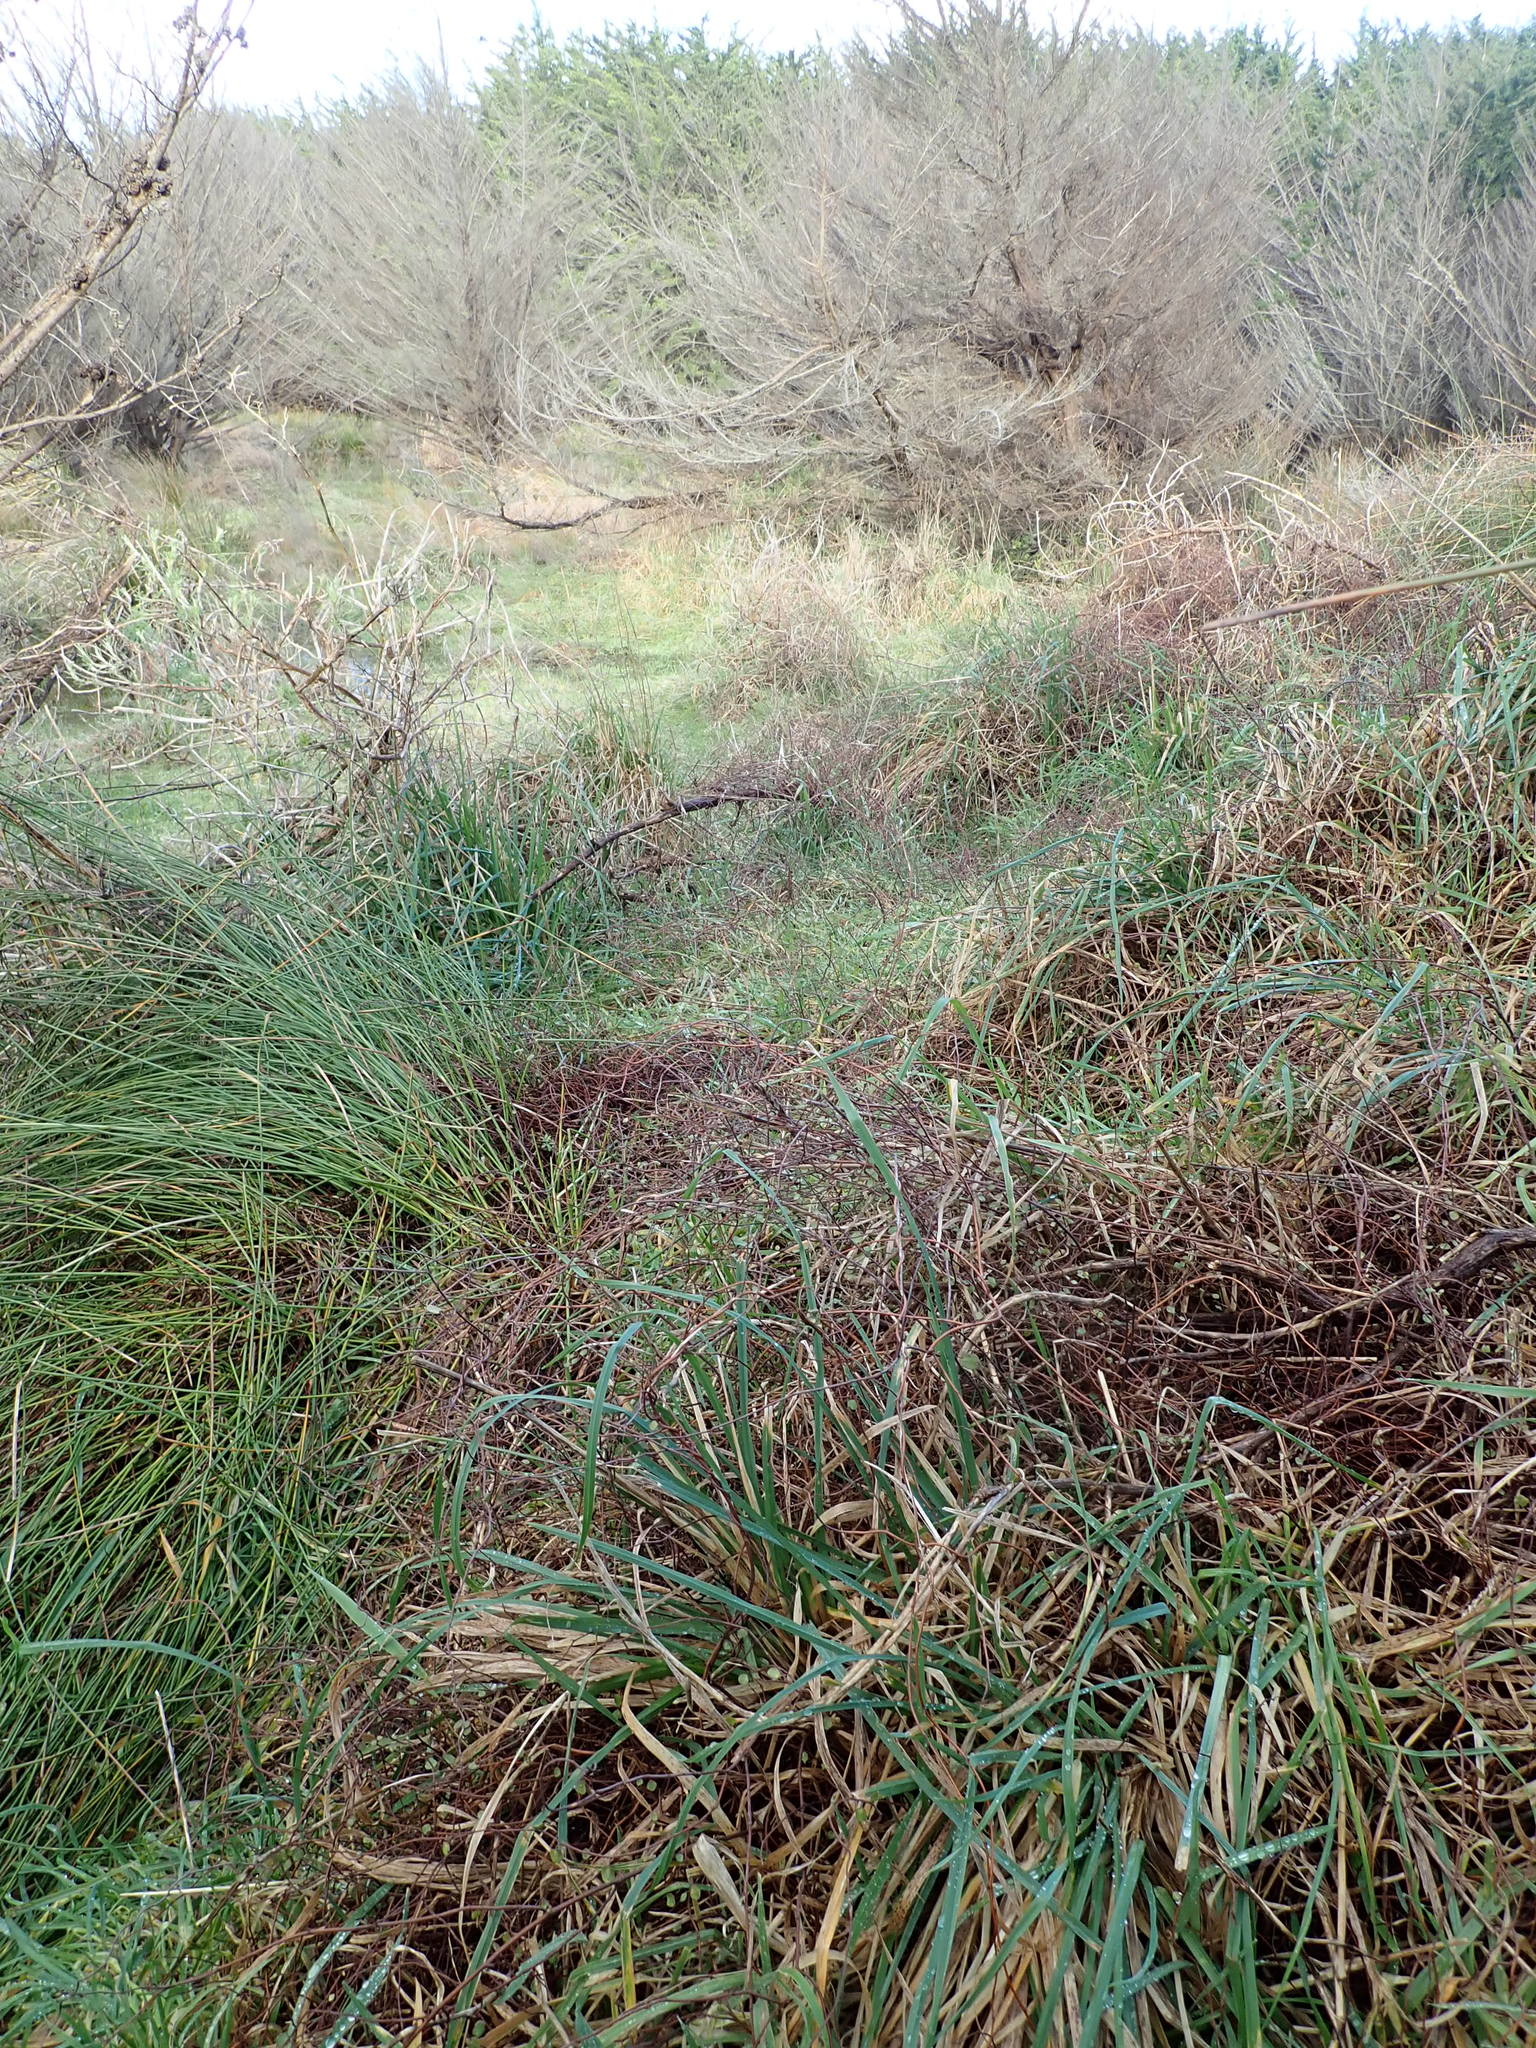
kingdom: Plantae
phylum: Tracheophyta
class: Magnoliopsida
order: Caryophyllales
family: Polygonaceae
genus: Muehlenbeckia
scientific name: Muehlenbeckia complexa
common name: Wireplant
